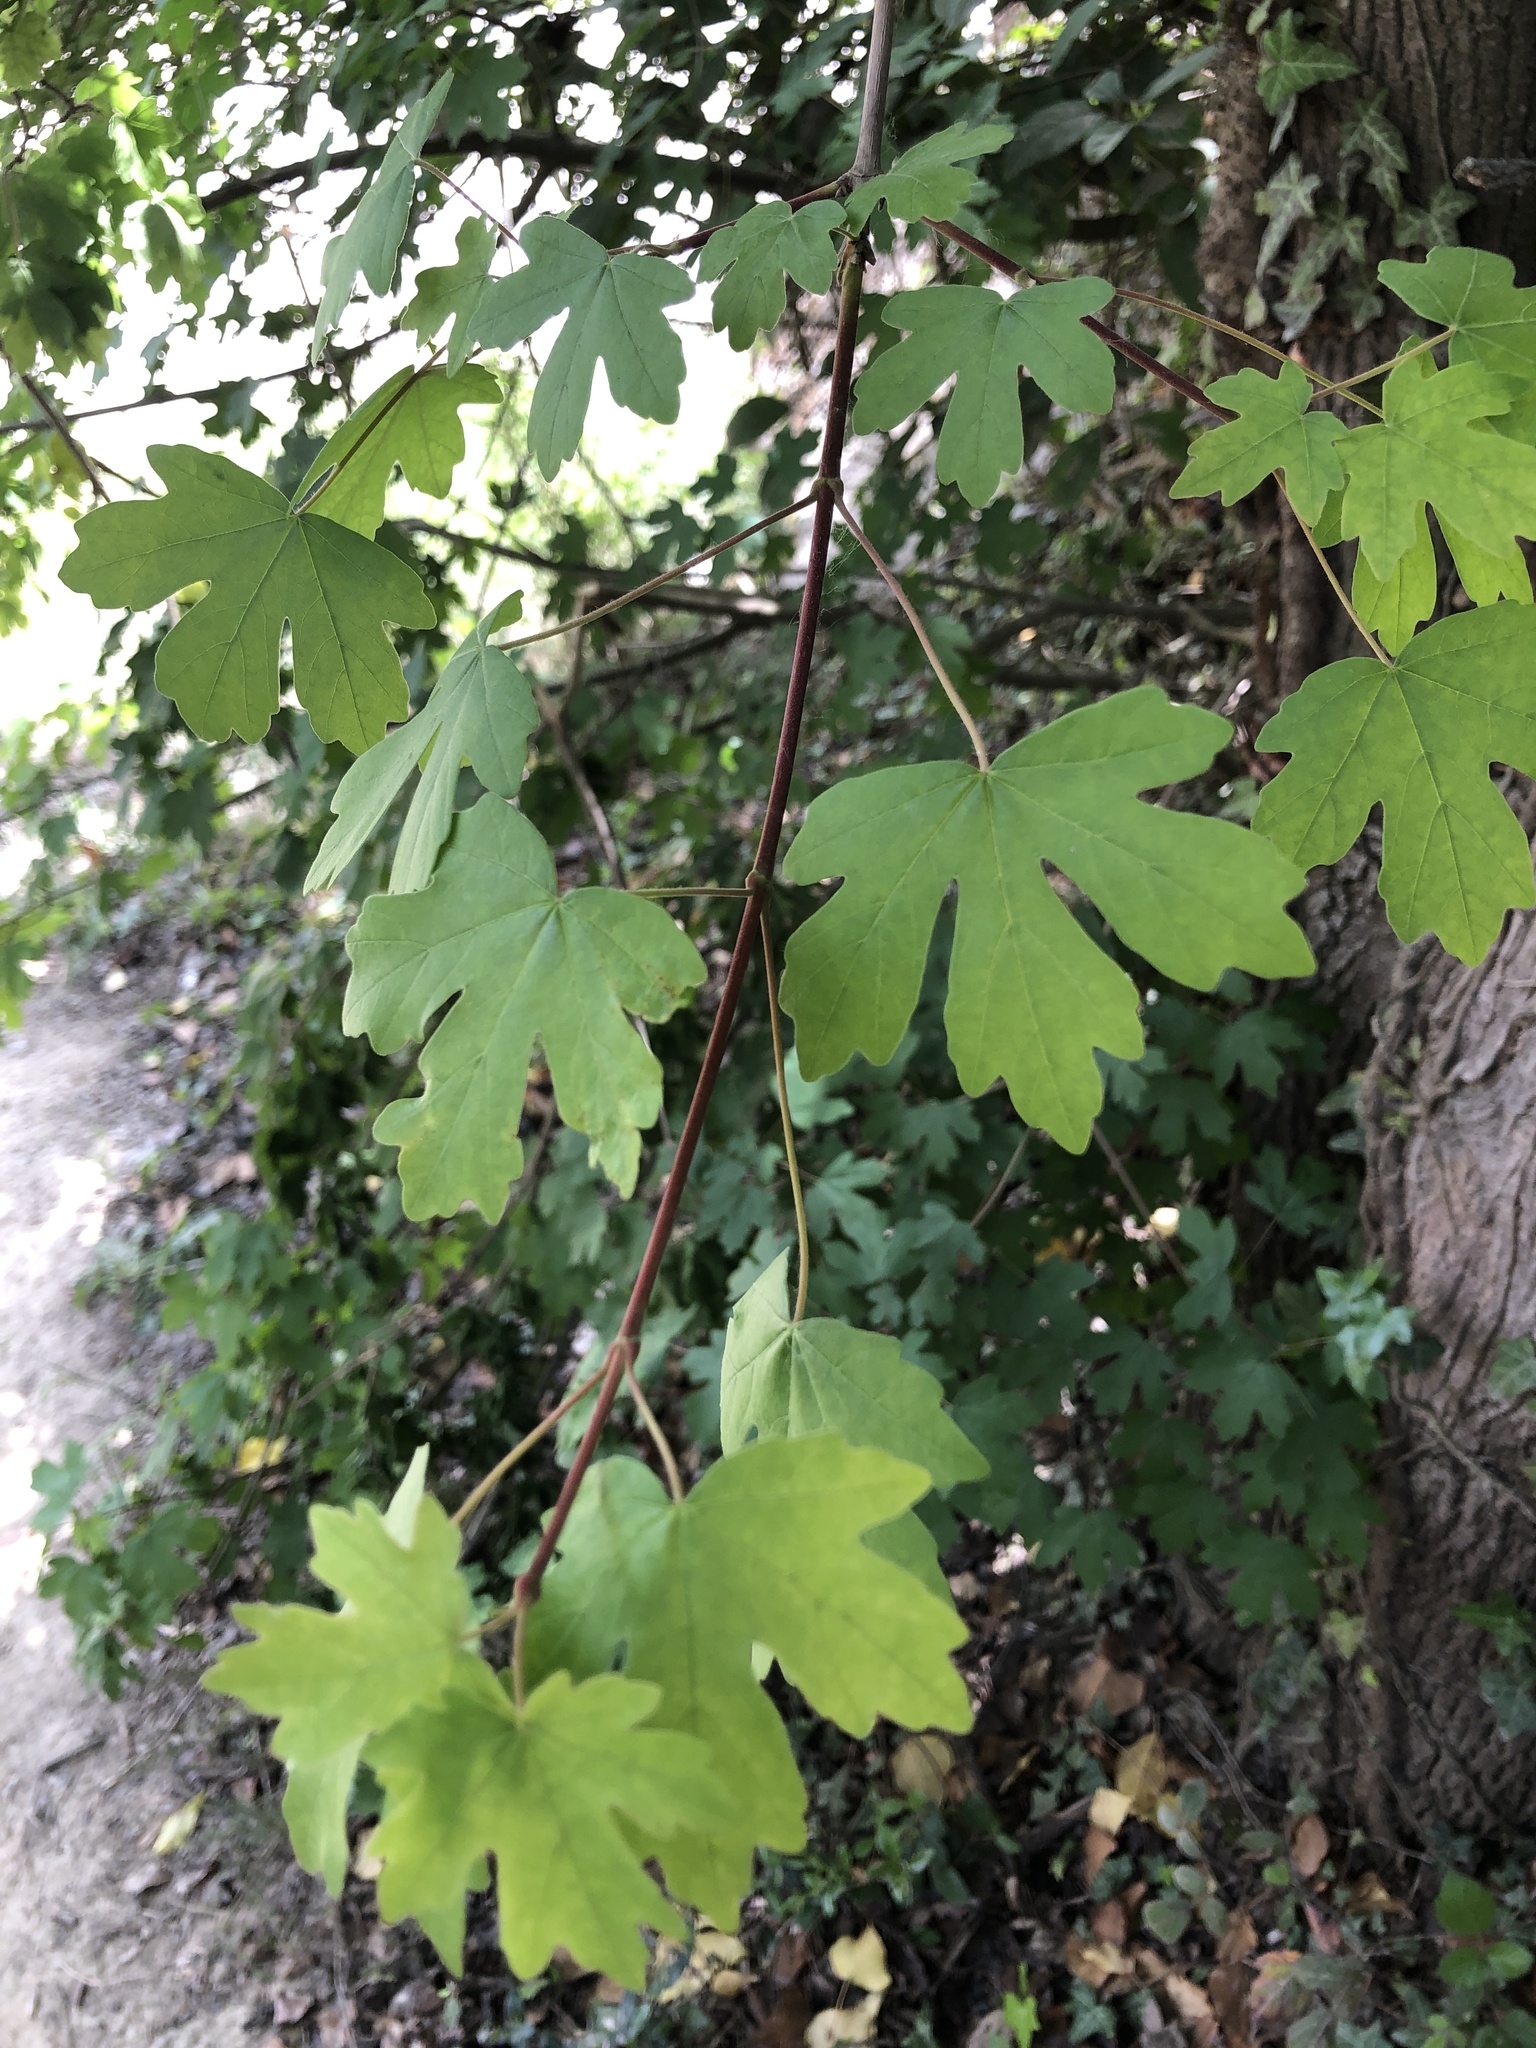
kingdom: Plantae
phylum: Tracheophyta
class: Magnoliopsida
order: Sapindales
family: Sapindaceae
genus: Acer
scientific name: Acer campestre
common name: Field maple
